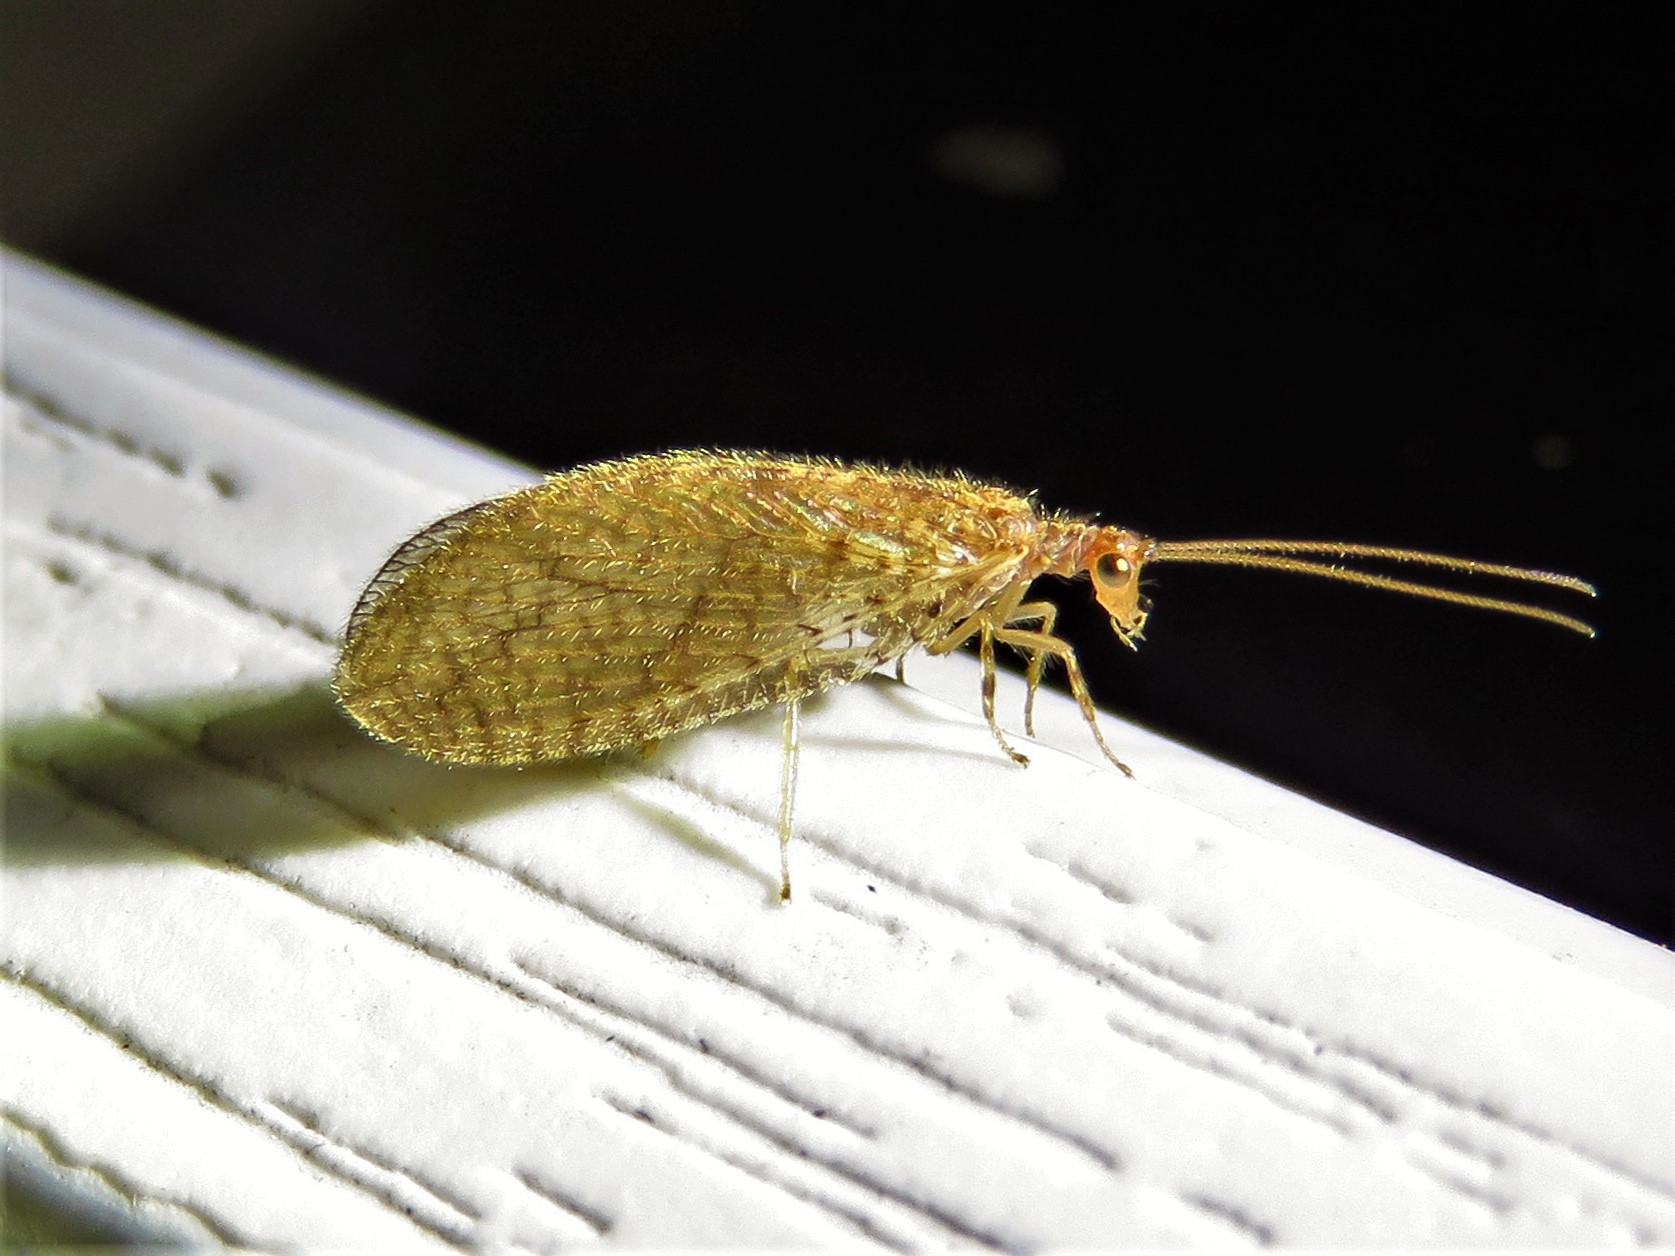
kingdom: Animalia
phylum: Arthropoda
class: Insecta
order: Neuroptera
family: Hemerobiidae
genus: Micromus
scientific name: Micromus posticus
